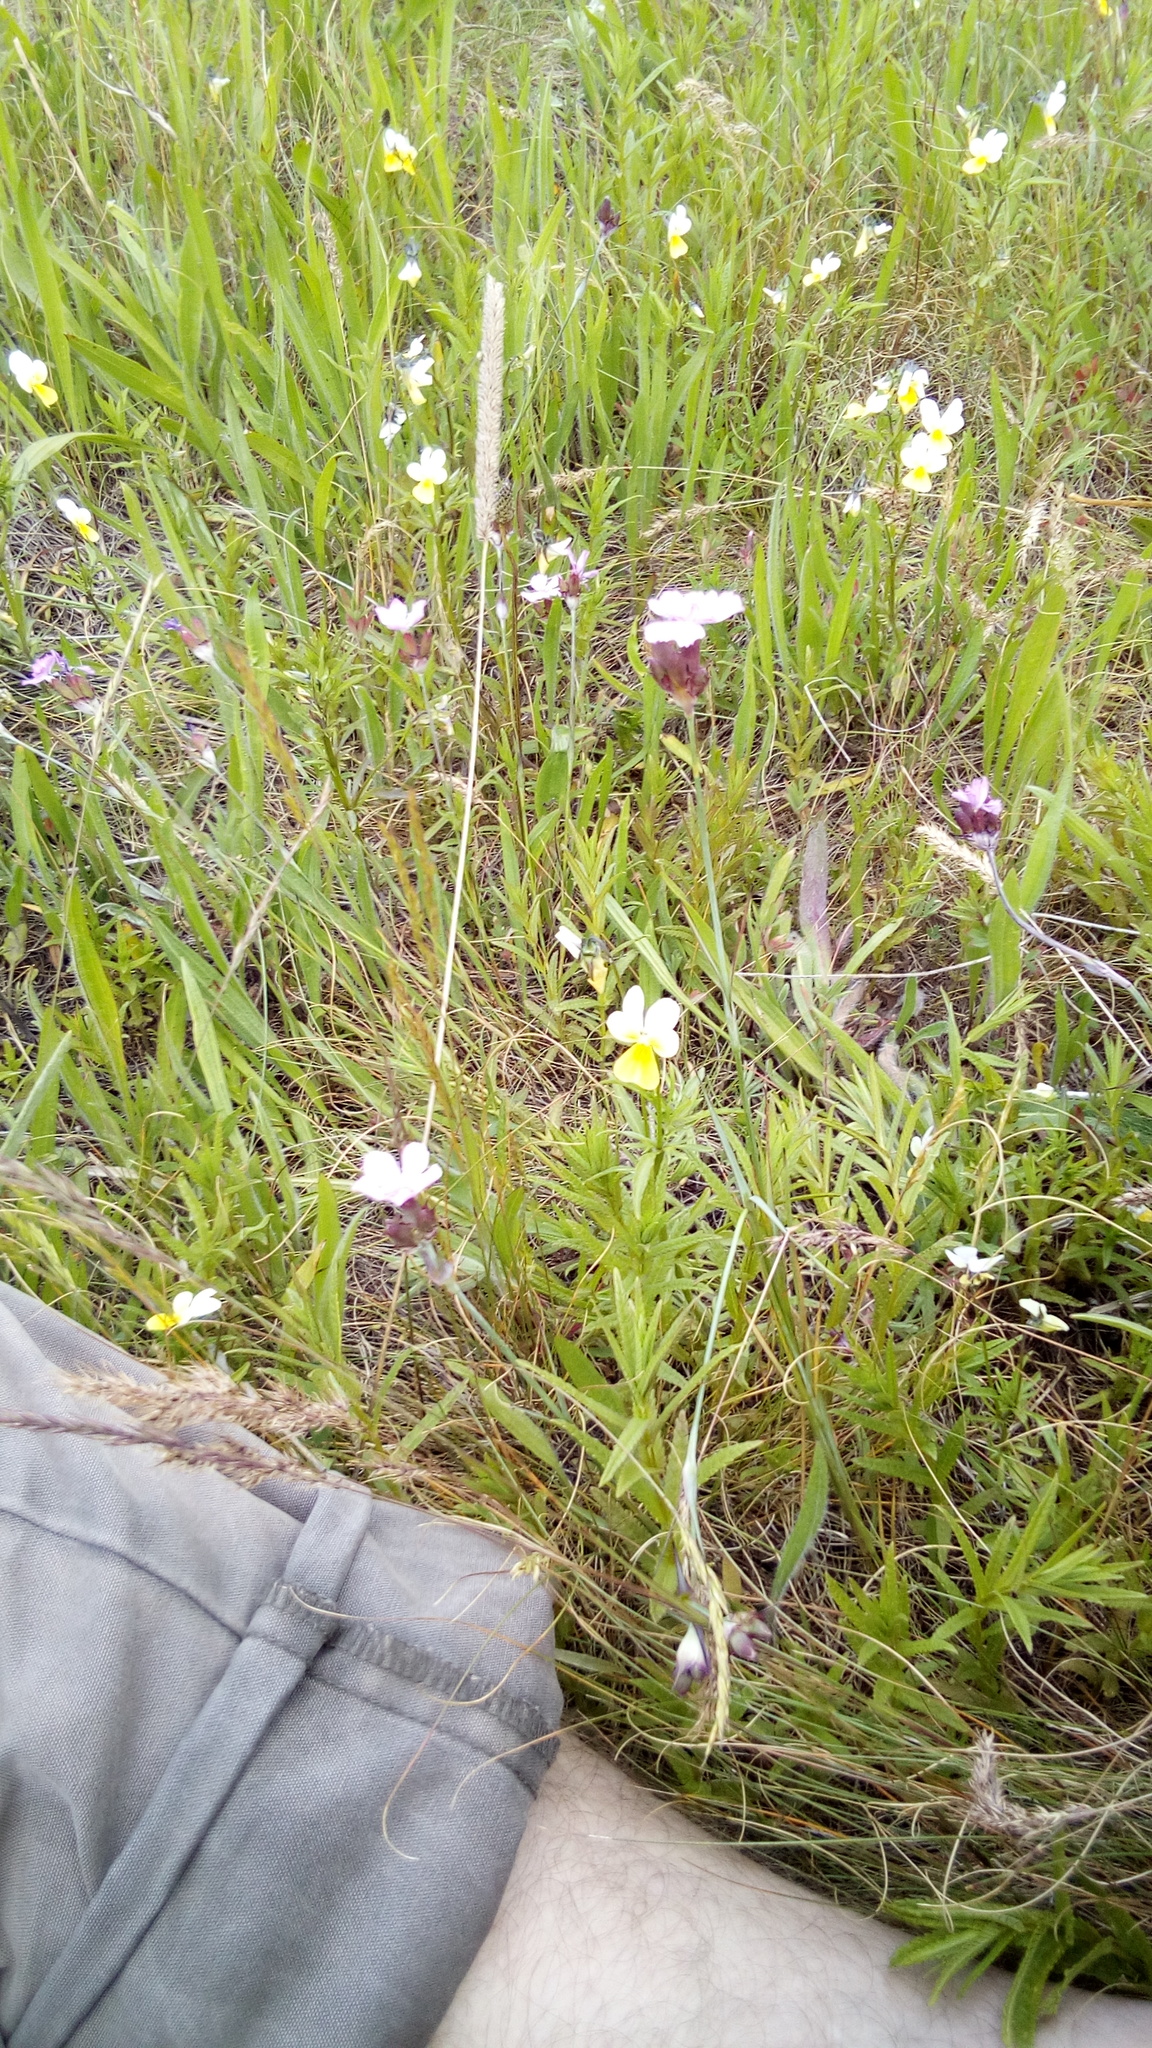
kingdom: Plantae
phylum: Tracheophyta
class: Magnoliopsida
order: Malpighiales
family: Violaceae
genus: Viola
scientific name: Viola arvensis
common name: Field pansy
